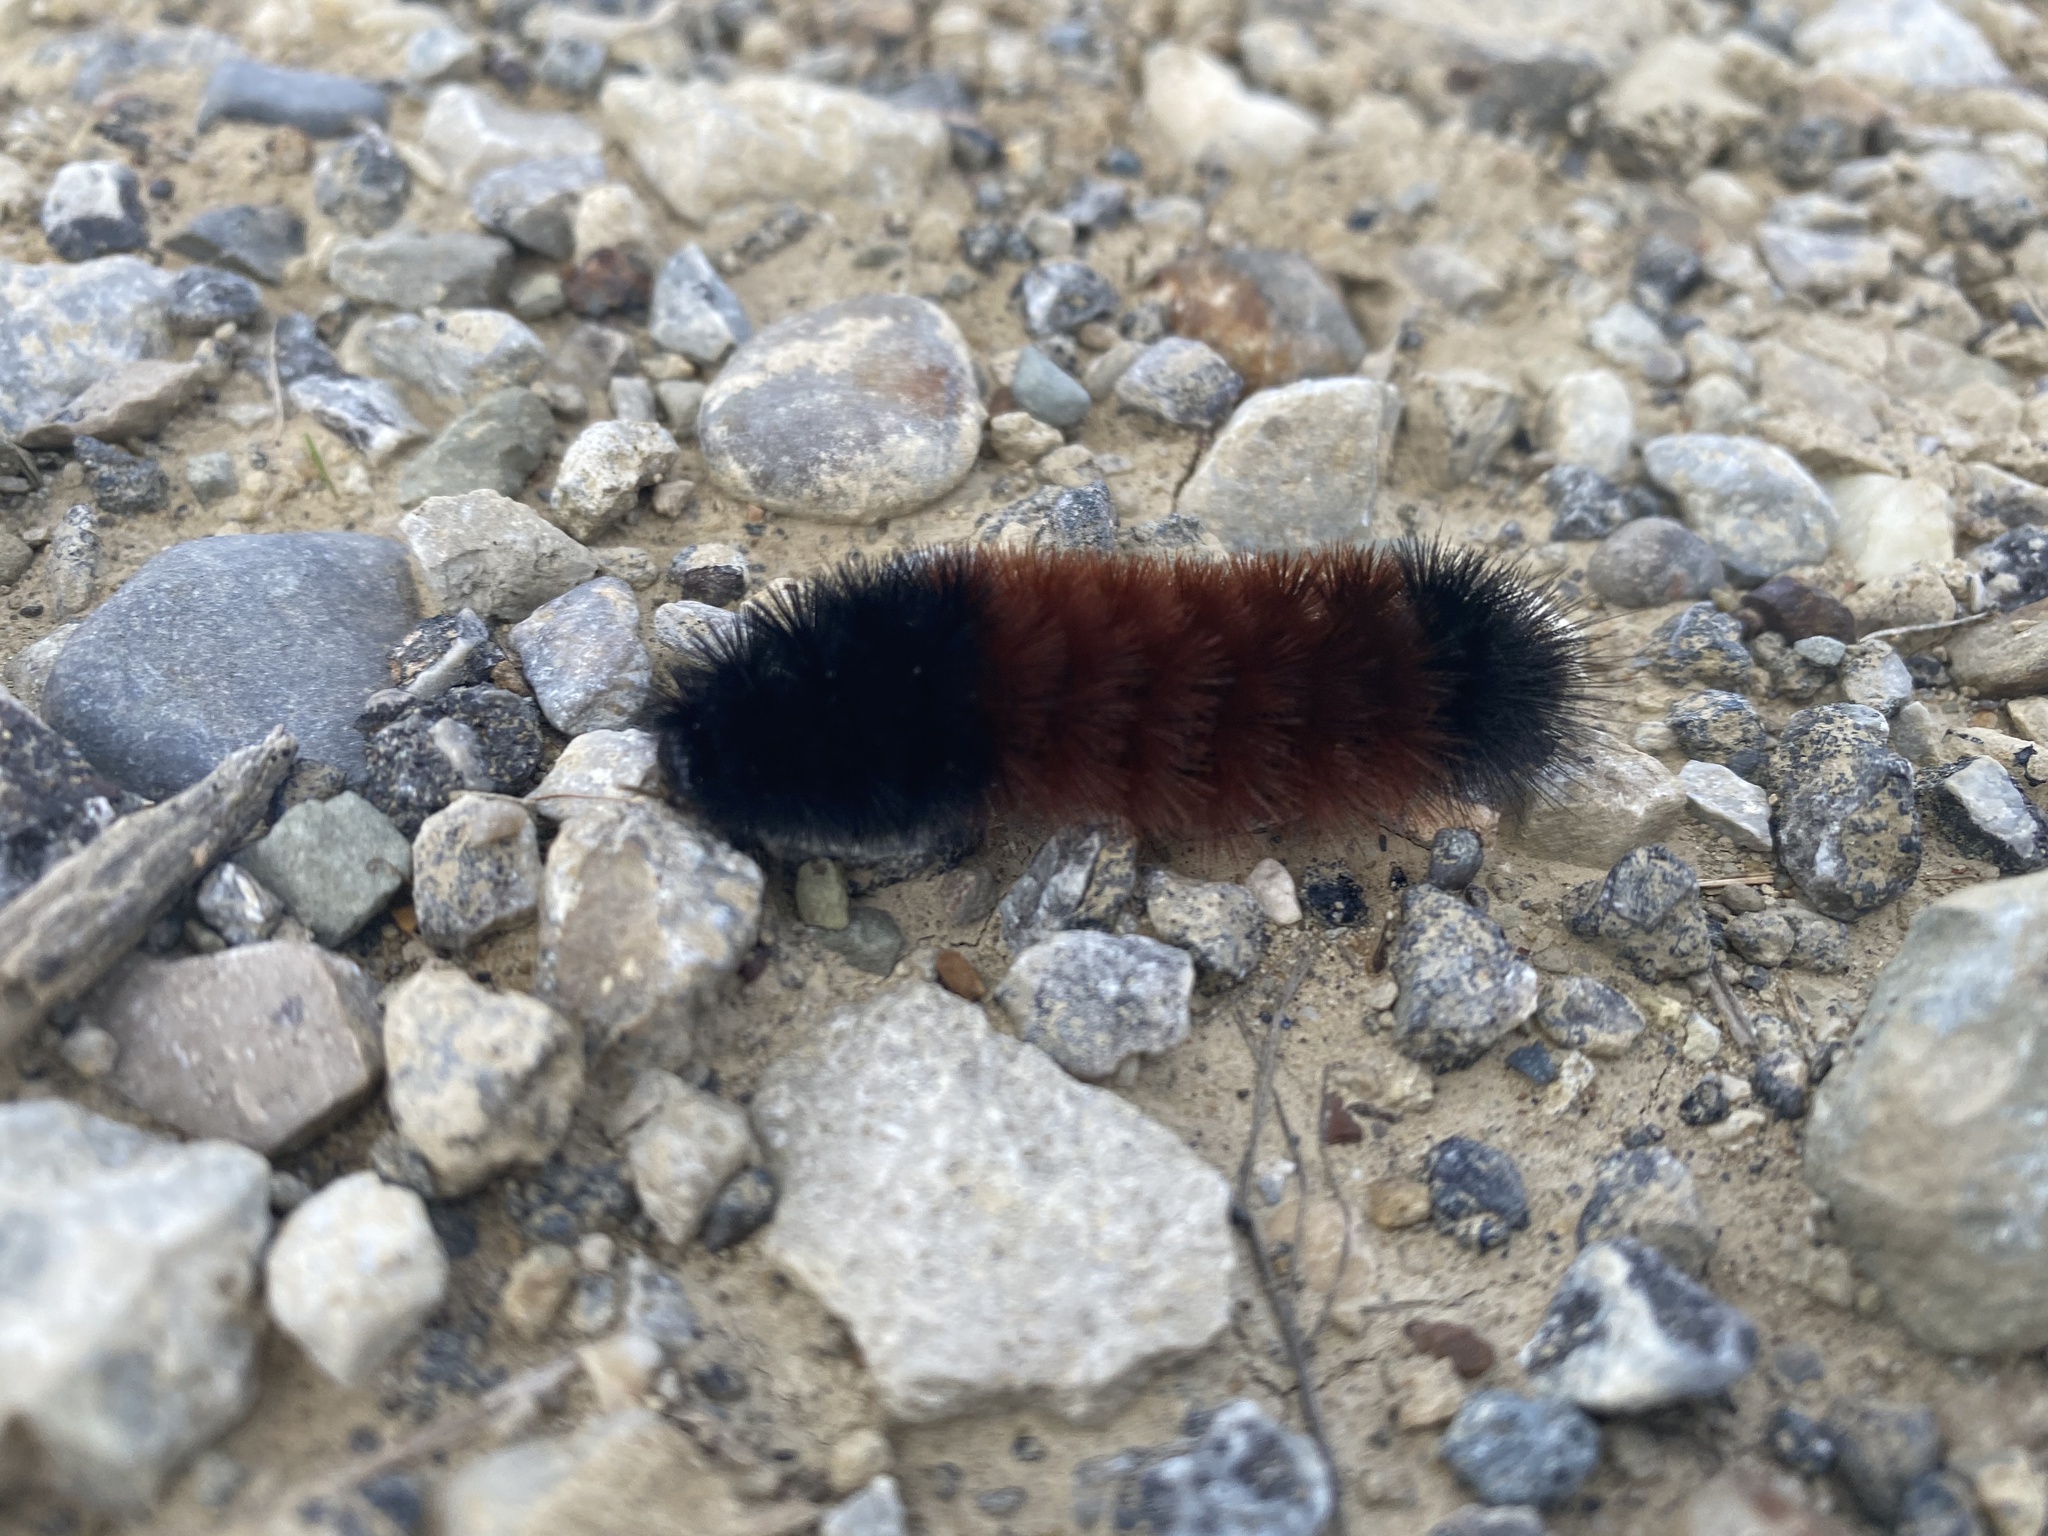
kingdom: Animalia
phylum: Arthropoda
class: Insecta
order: Lepidoptera
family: Erebidae
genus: Pyrrharctia
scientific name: Pyrrharctia isabella
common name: Isabella tiger moth
